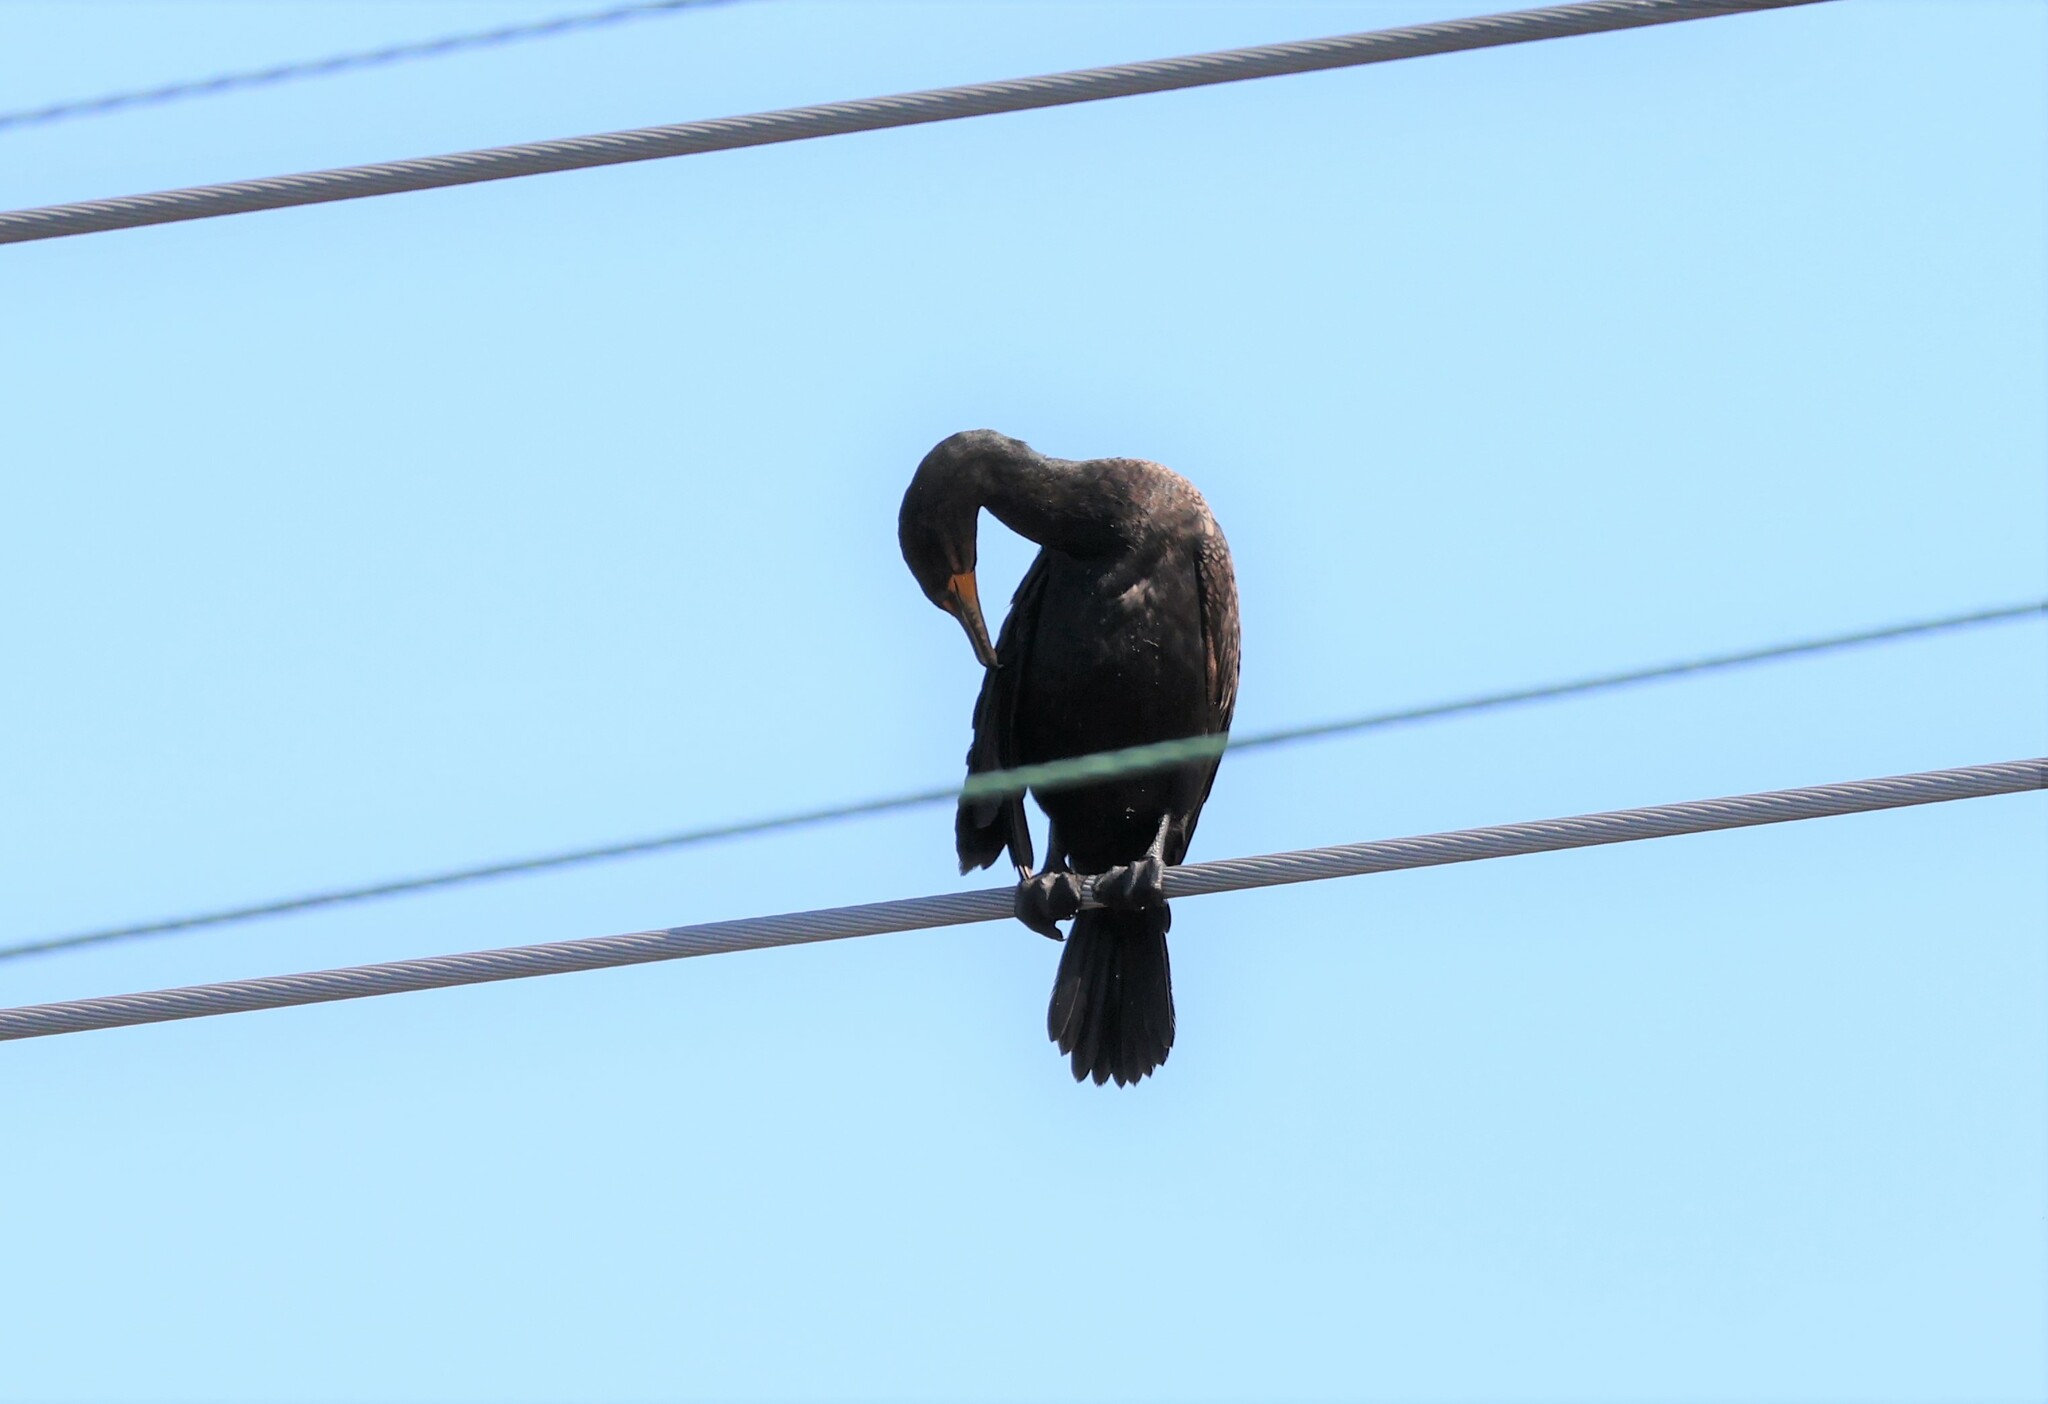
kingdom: Animalia
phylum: Chordata
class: Aves
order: Suliformes
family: Phalacrocoracidae
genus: Phalacrocorax
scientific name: Phalacrocorax auritus
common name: Double-crested cormorant
